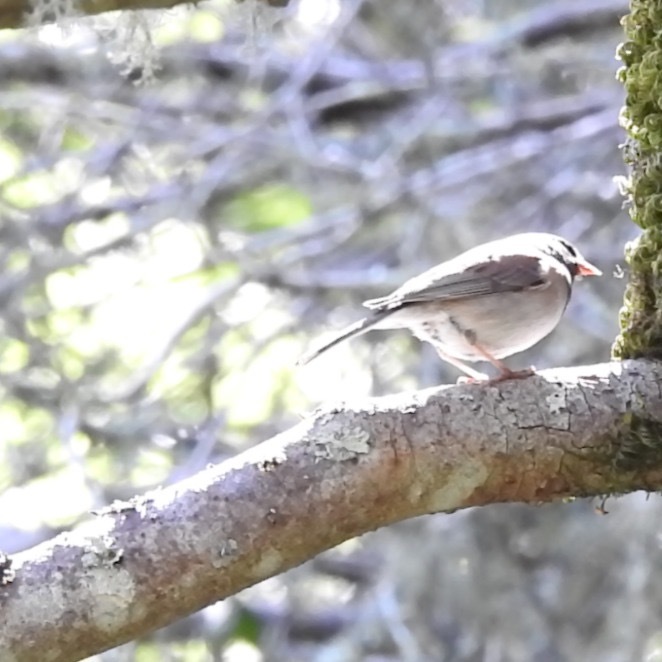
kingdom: Animalia
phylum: Chordata
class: Aves
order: Passeriformes
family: Passerellidae
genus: Junco
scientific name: Junco hyemalis
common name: Dark-eyed junco
